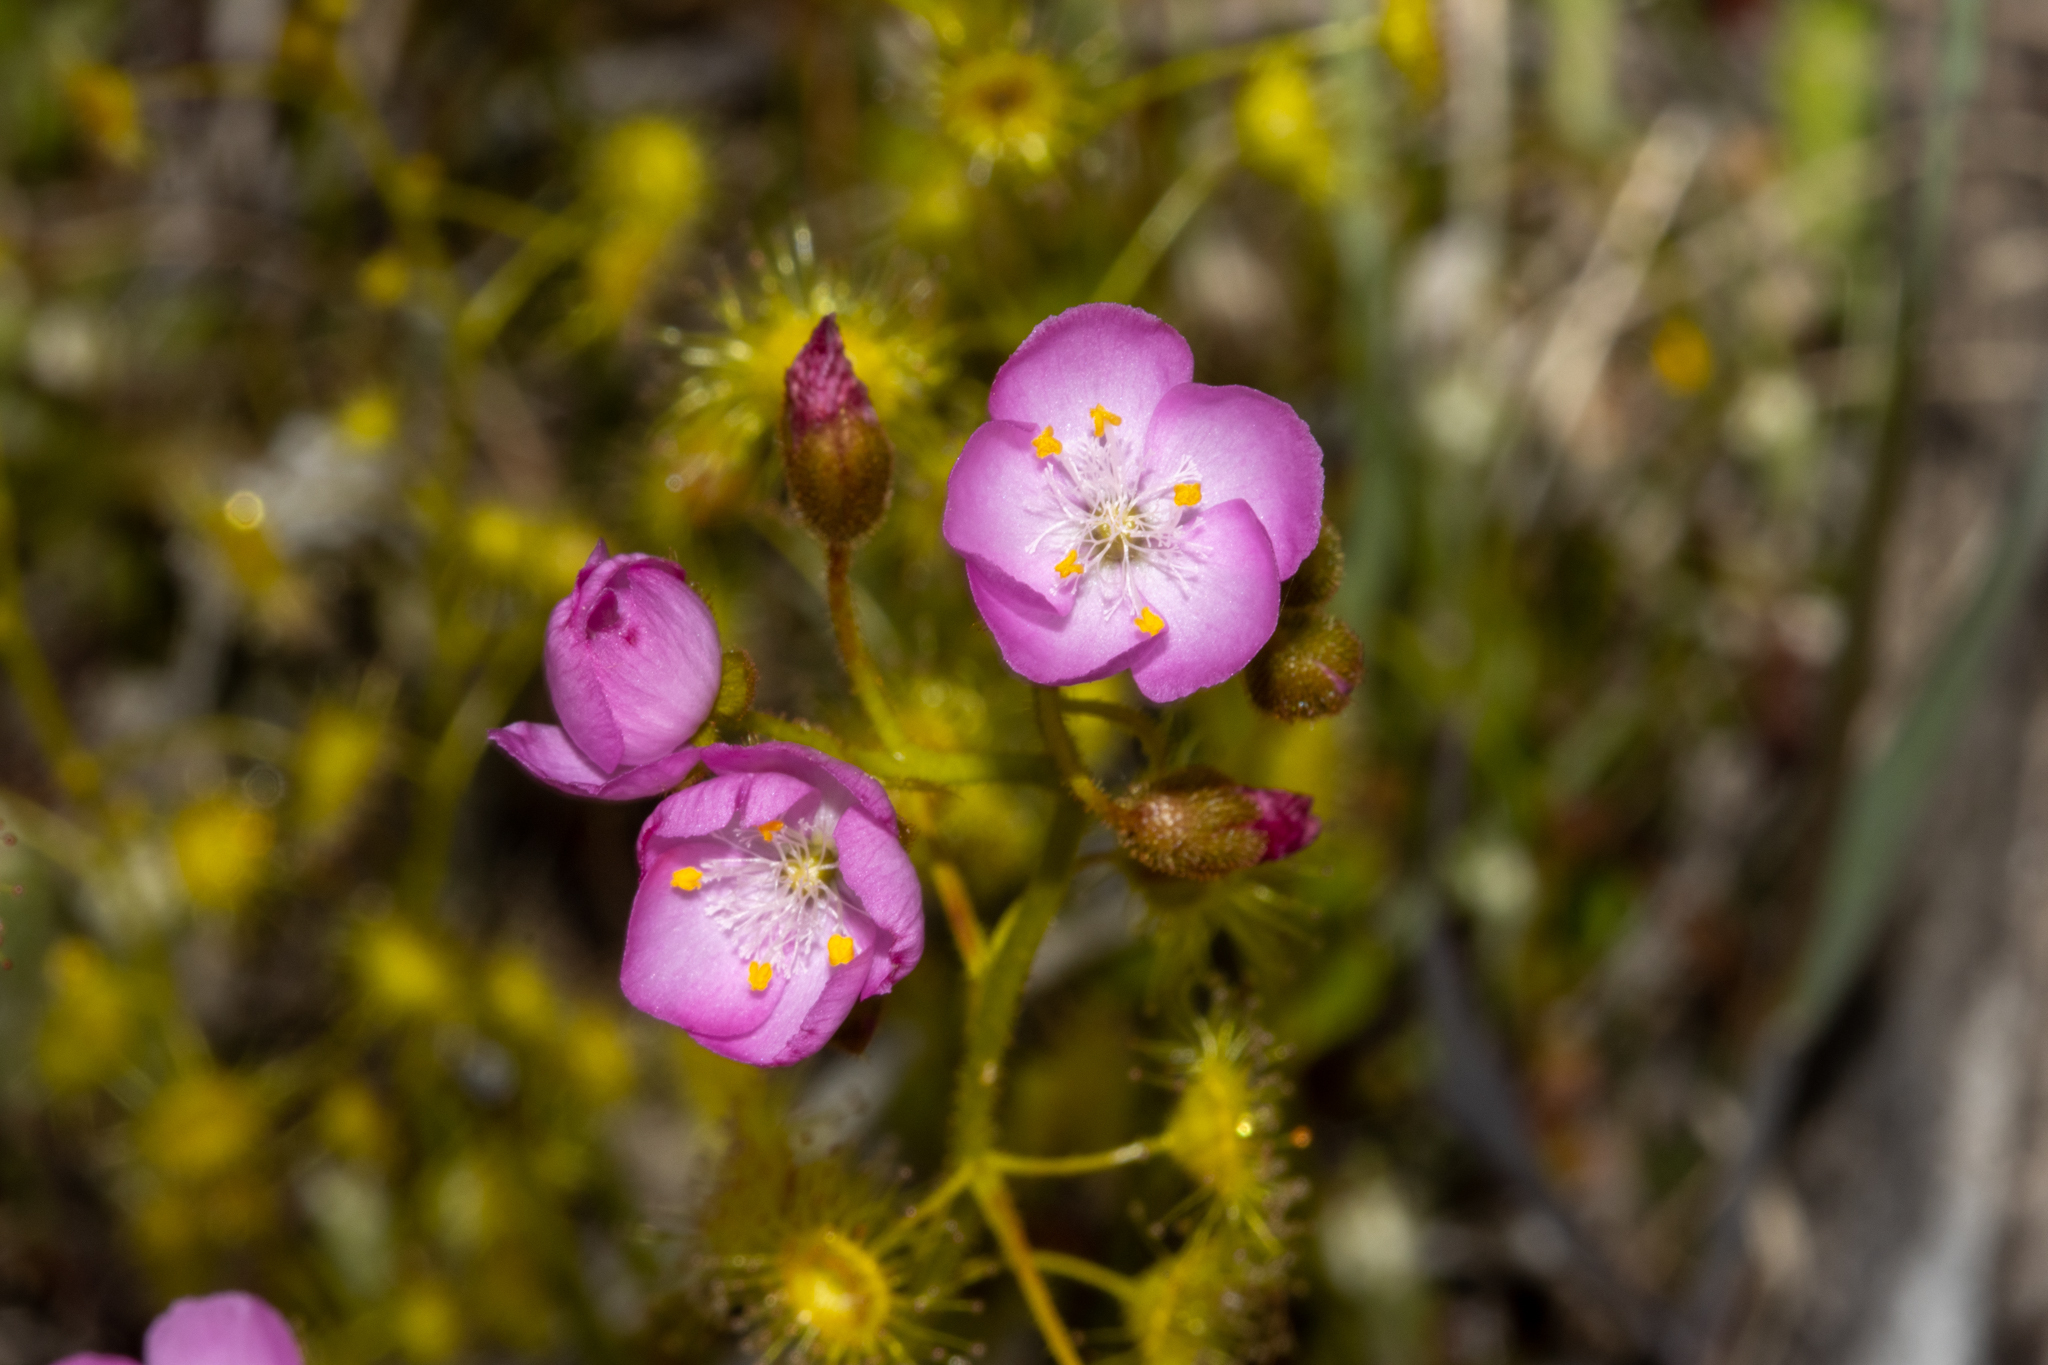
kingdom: Plantae
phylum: Tracheophyta
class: Magnoliopsida
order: Caryophyllales
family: Droseraceae
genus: Drosera
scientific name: Drosera stricticaulis
